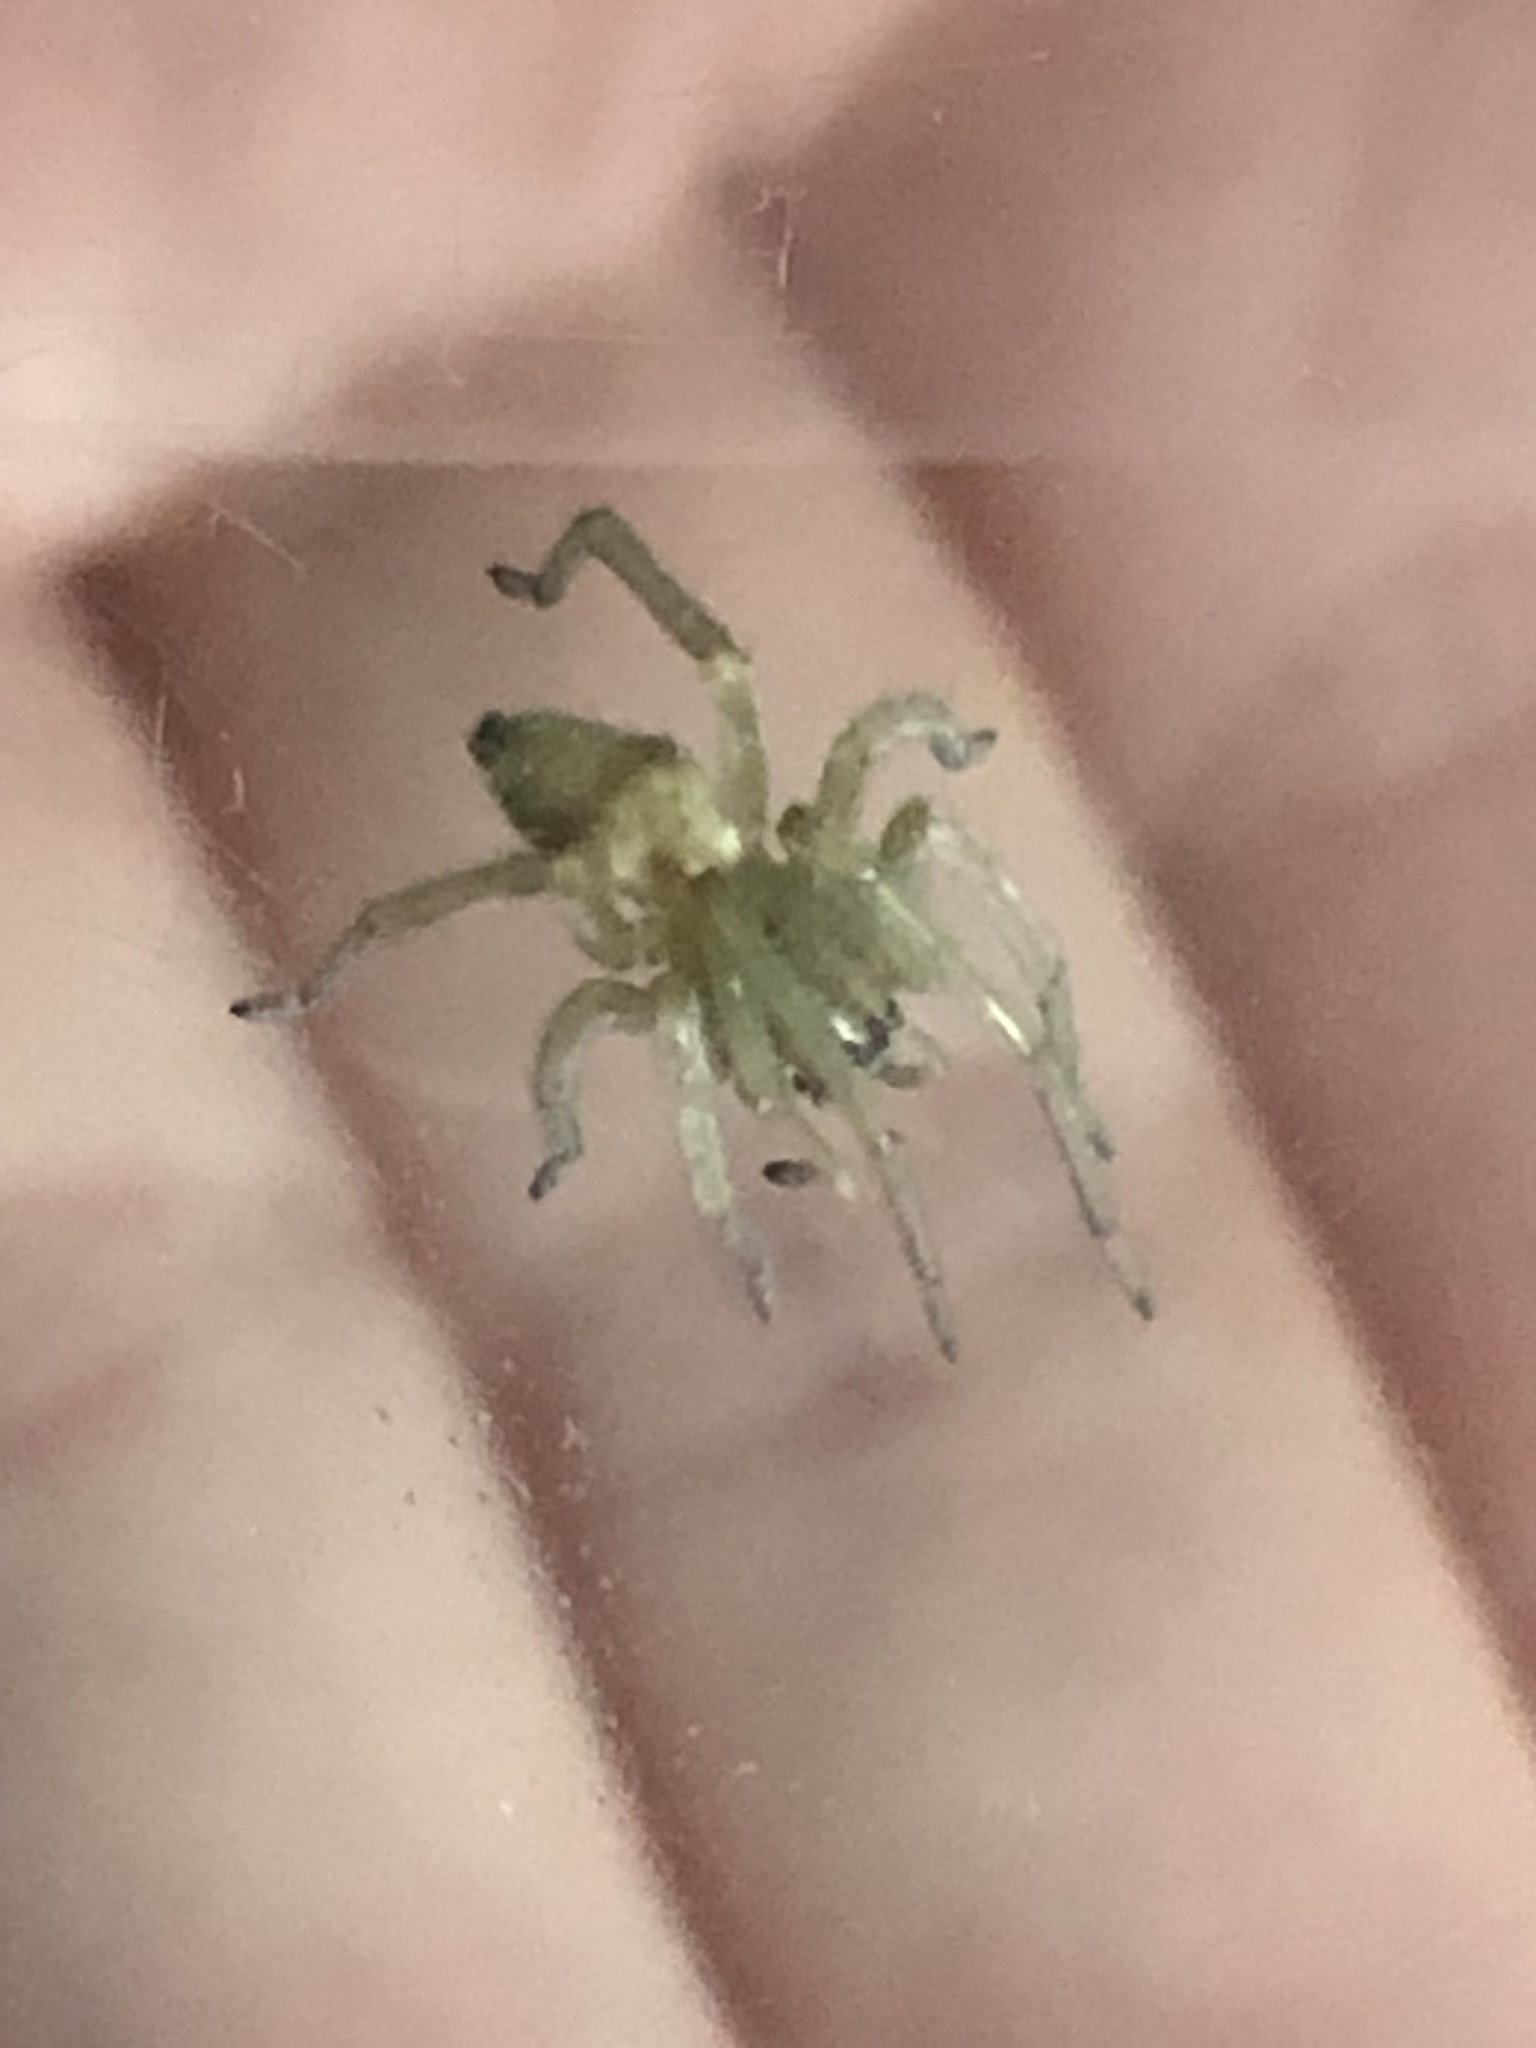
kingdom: Animalia
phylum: Arthropoda
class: Arachnida
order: Araneae
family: Cheiracanthiidae
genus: Cheiracanthium
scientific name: Cheiracanthium mildei
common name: Northern yellow sac spider
